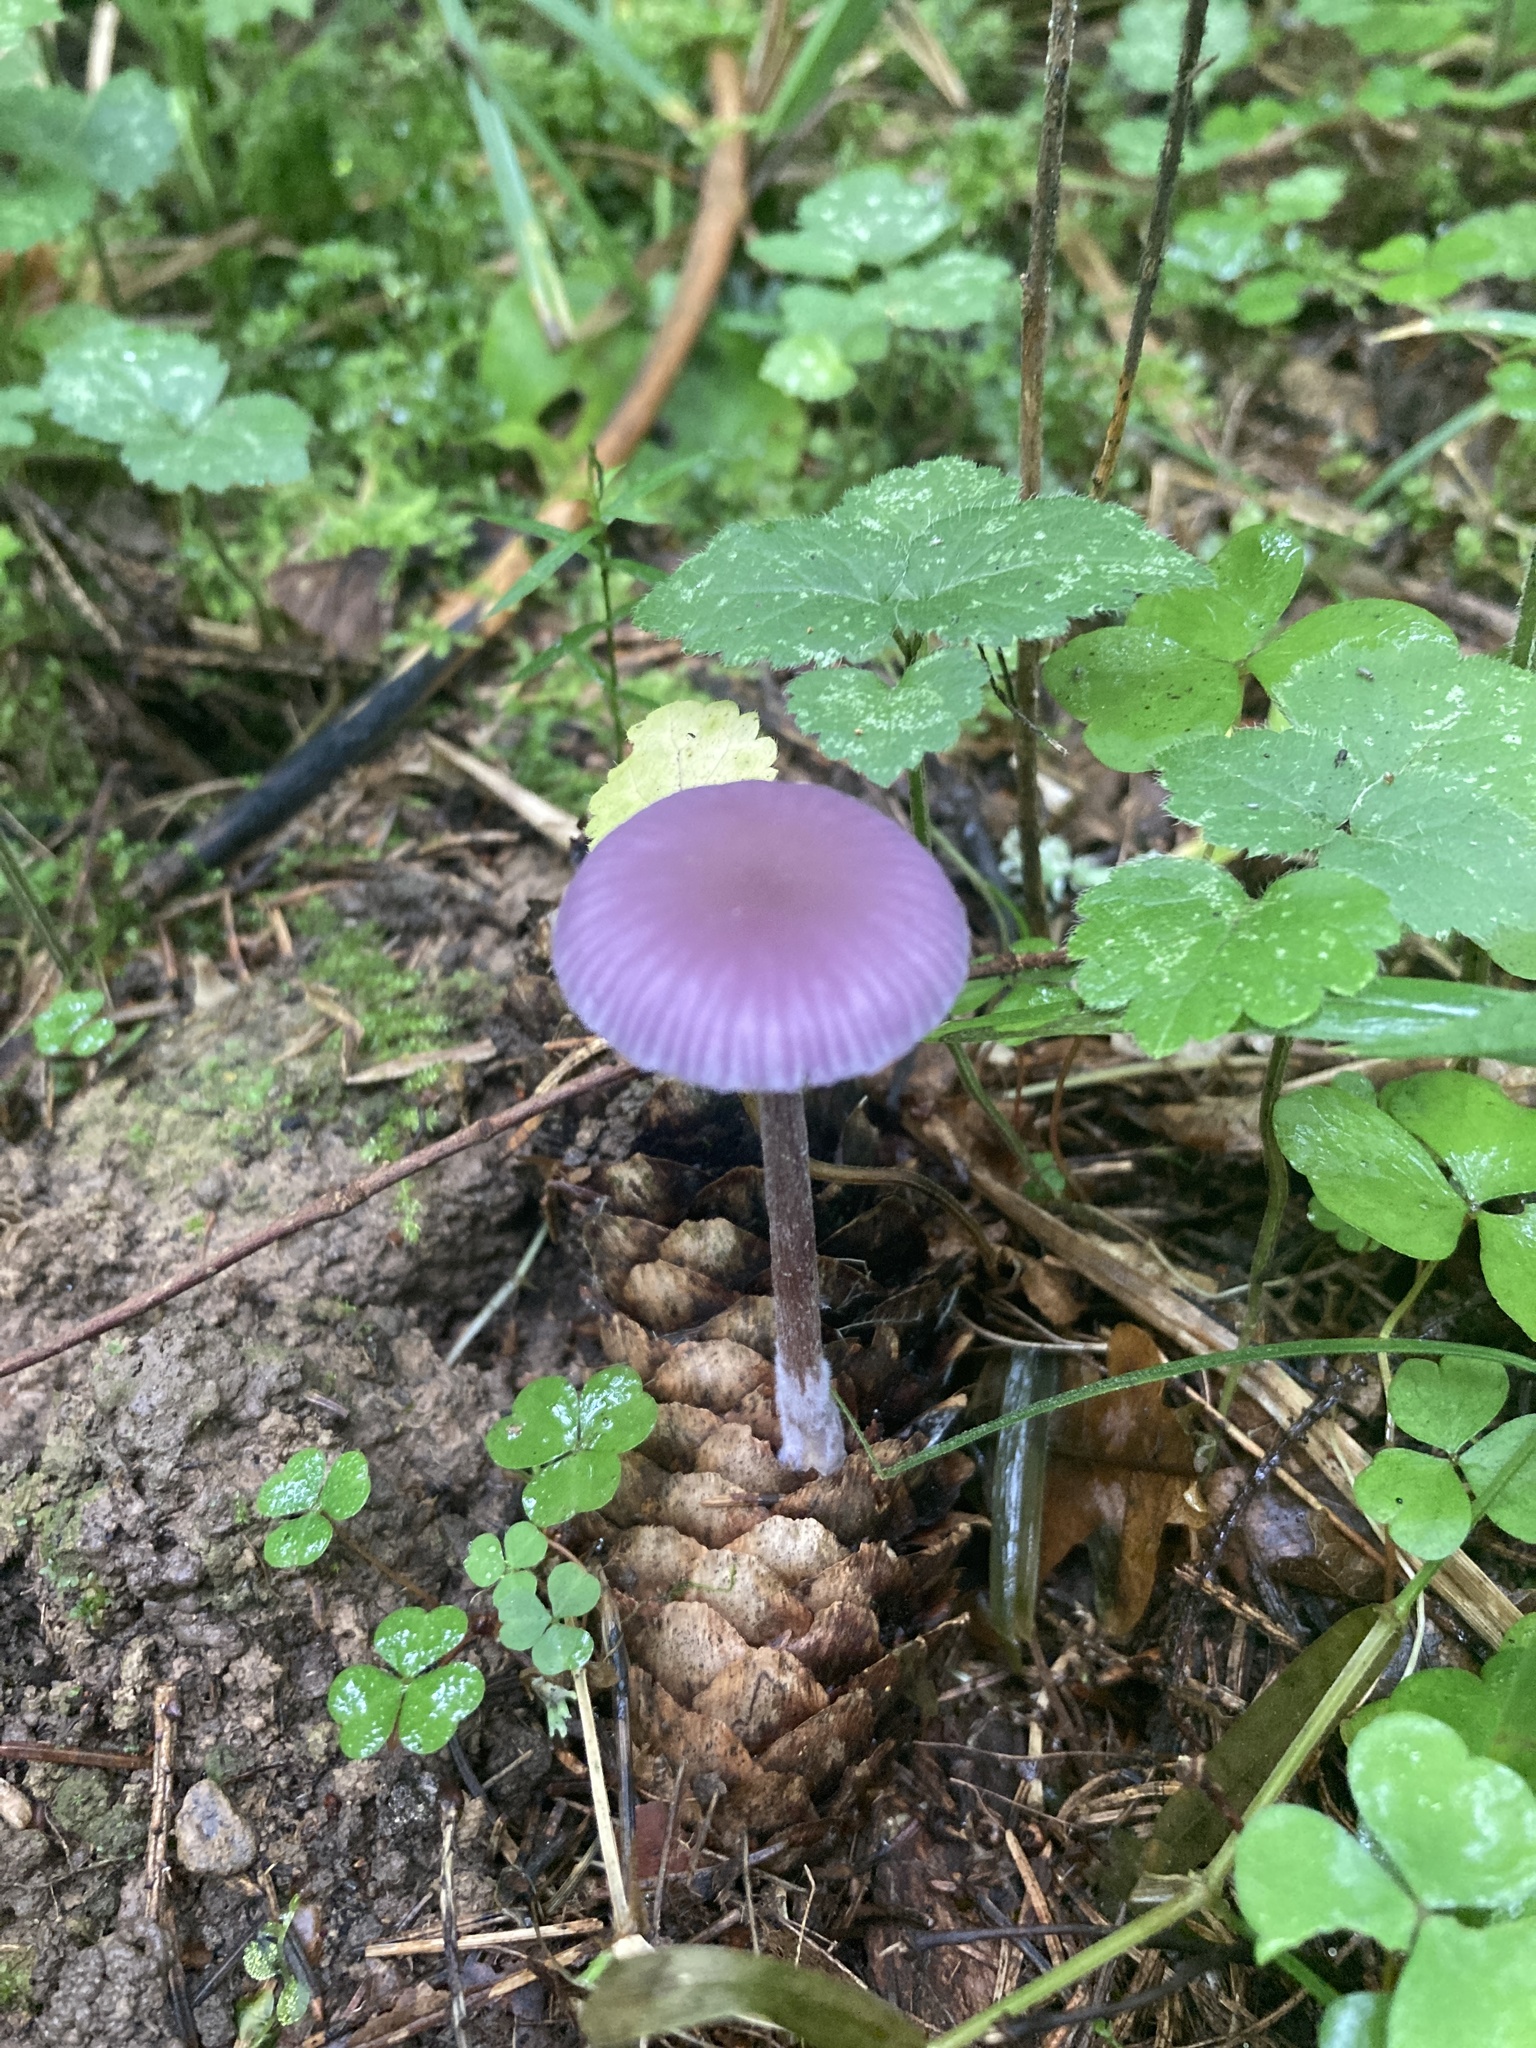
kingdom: Fungi
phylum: Basidiomycota
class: Agaricomycetes
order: Agaricales
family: Hydnangiaceae
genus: Laccaria
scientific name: Laccaria amethystina
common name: Amethyst deceiver
